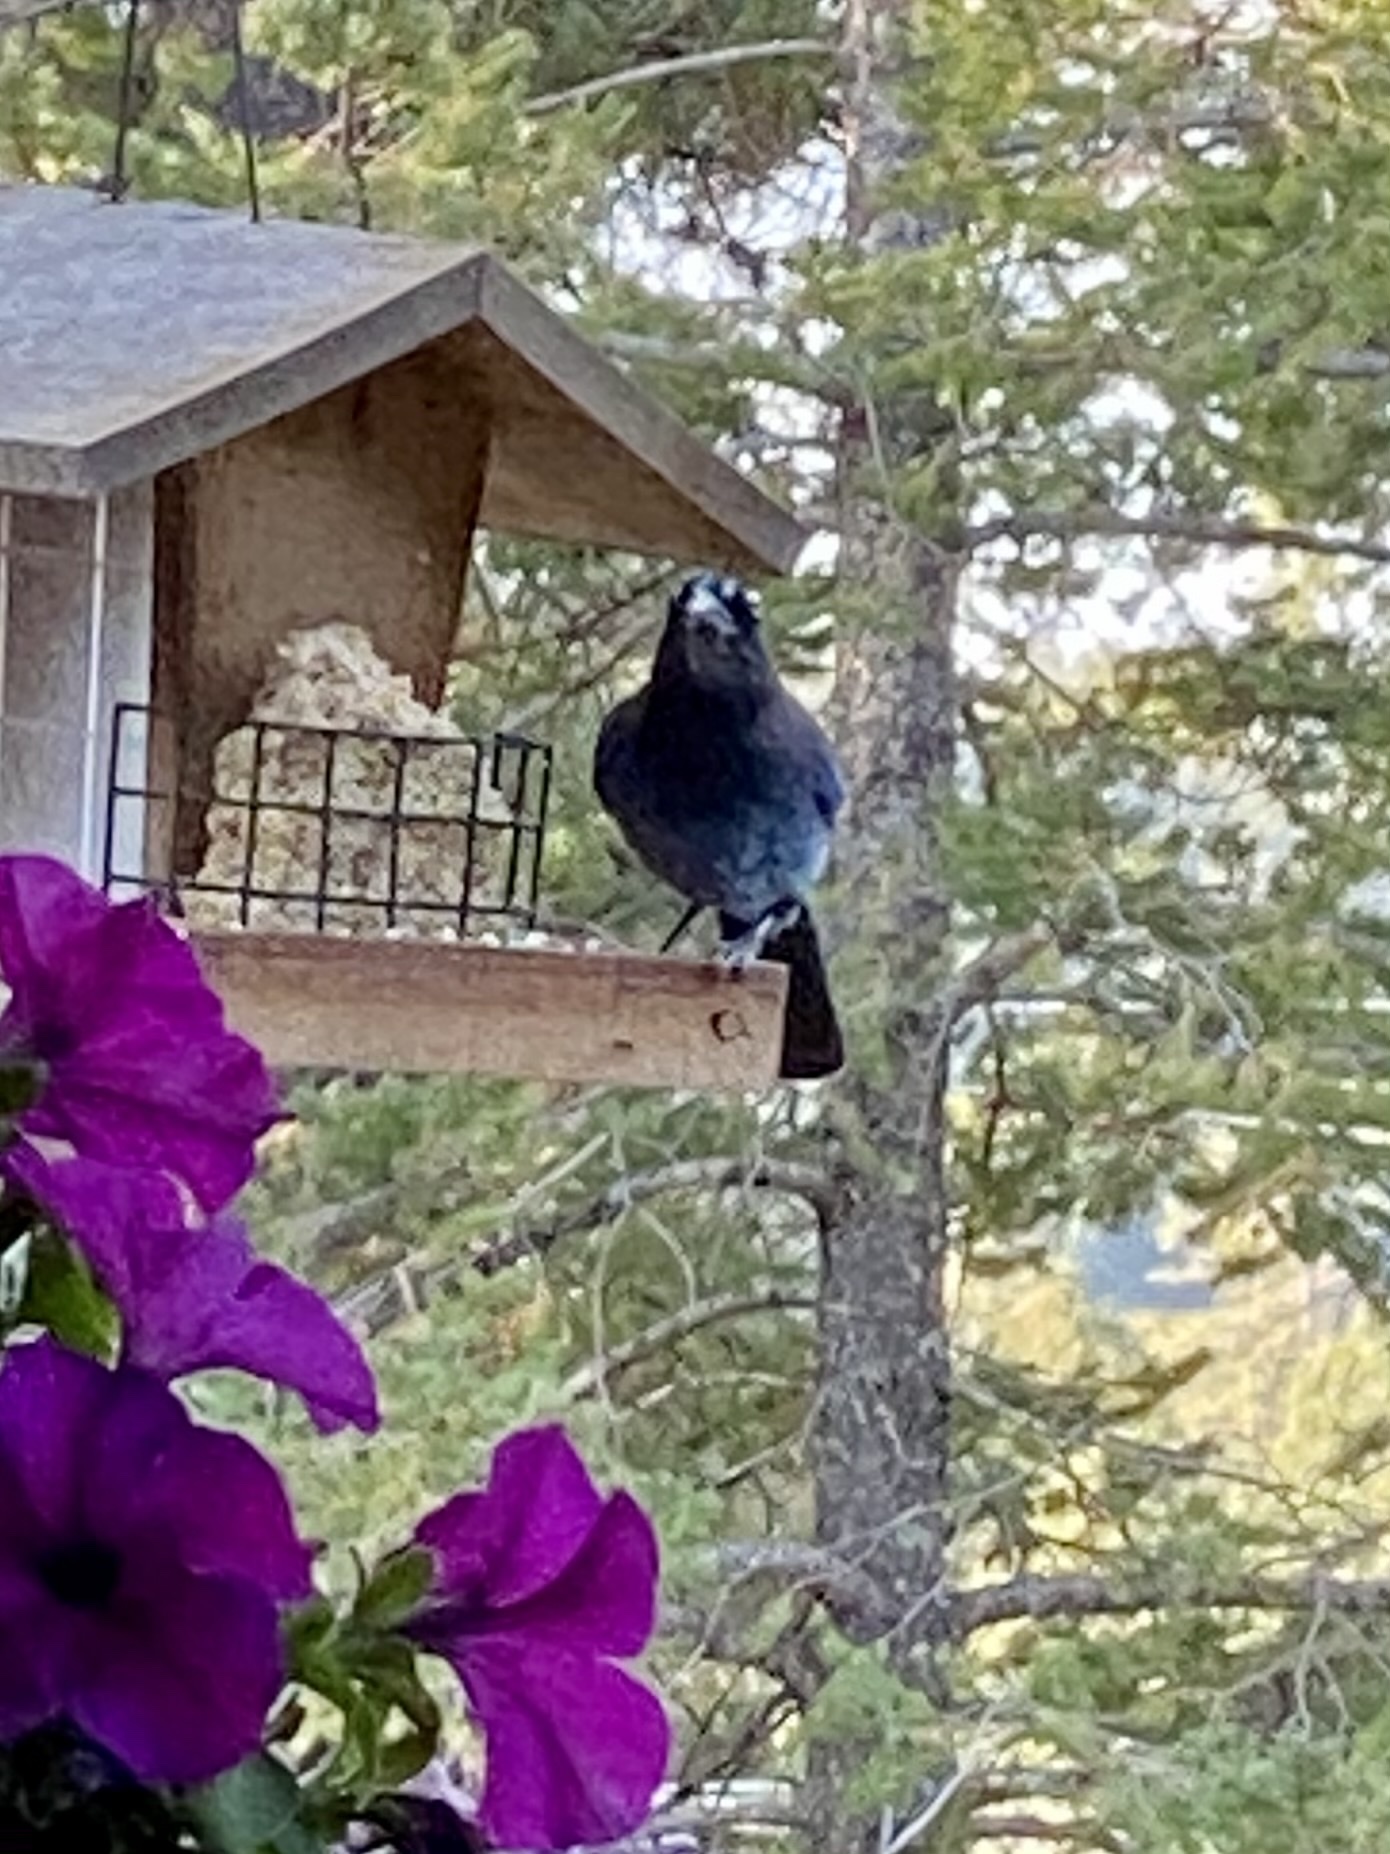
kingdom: Animalia
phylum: Chordata
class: Aves
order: Passeriformes
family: Corvidae
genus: Cyanocitta
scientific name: Cyanocitta stelleri
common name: Steller's jay
